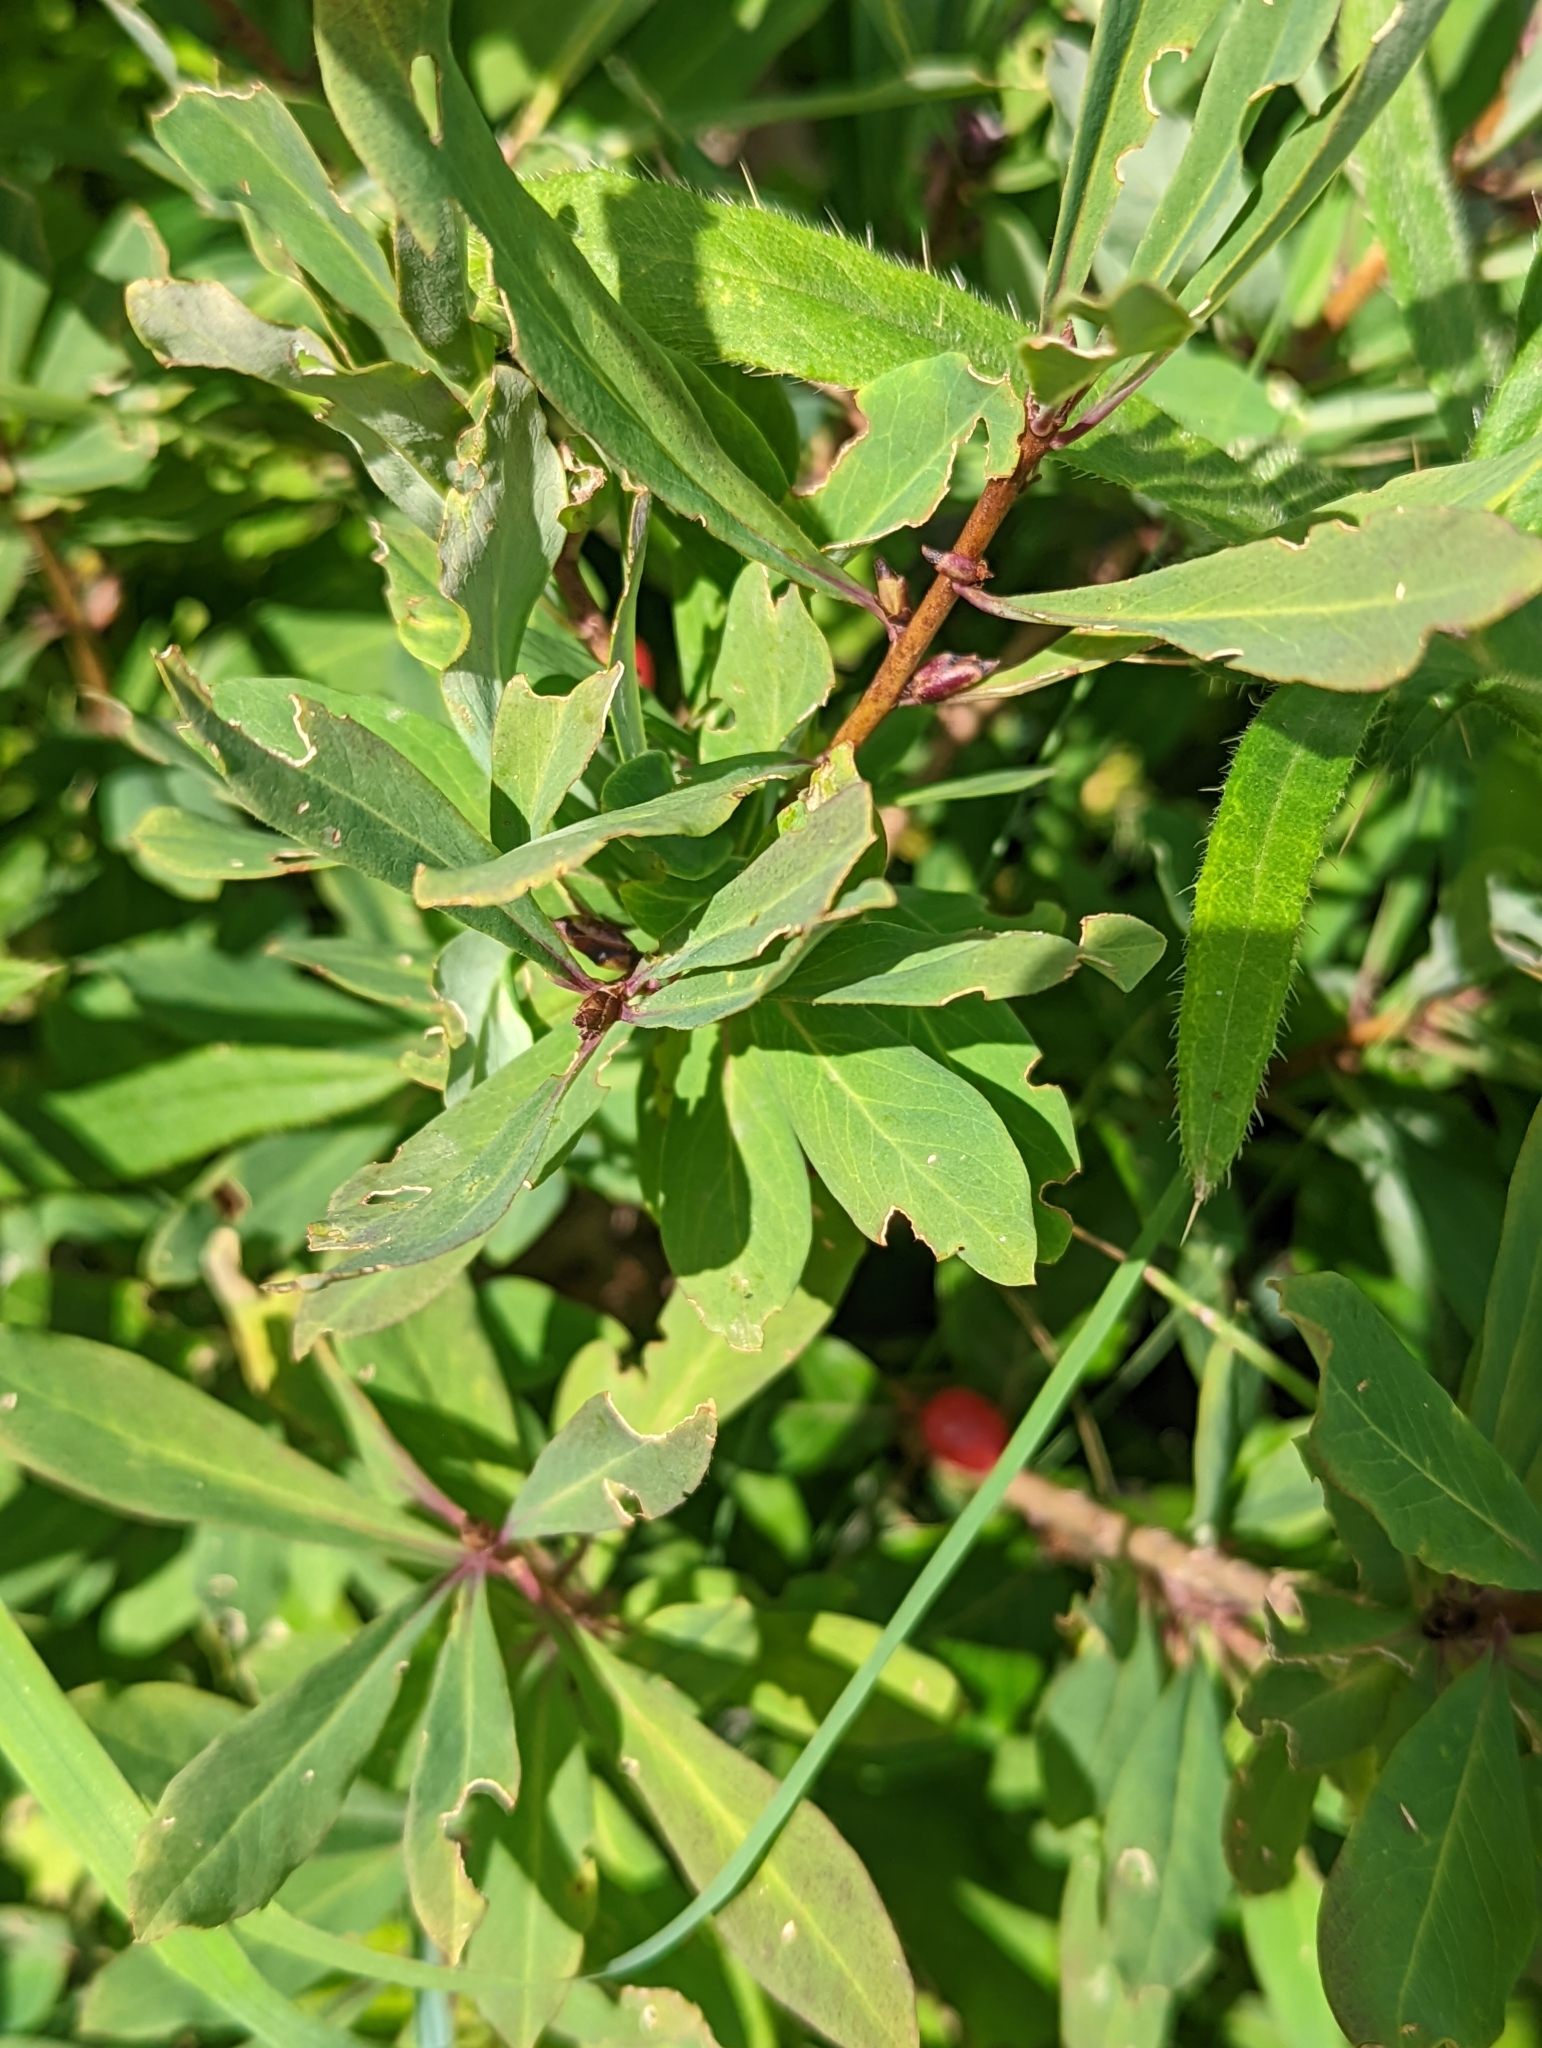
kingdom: Plantae
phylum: Tracheophyta
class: Magnoliopsida
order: Malvales
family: Thymelaeaceae
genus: Daphne
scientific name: Daphne mezereum
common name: Mezereon
